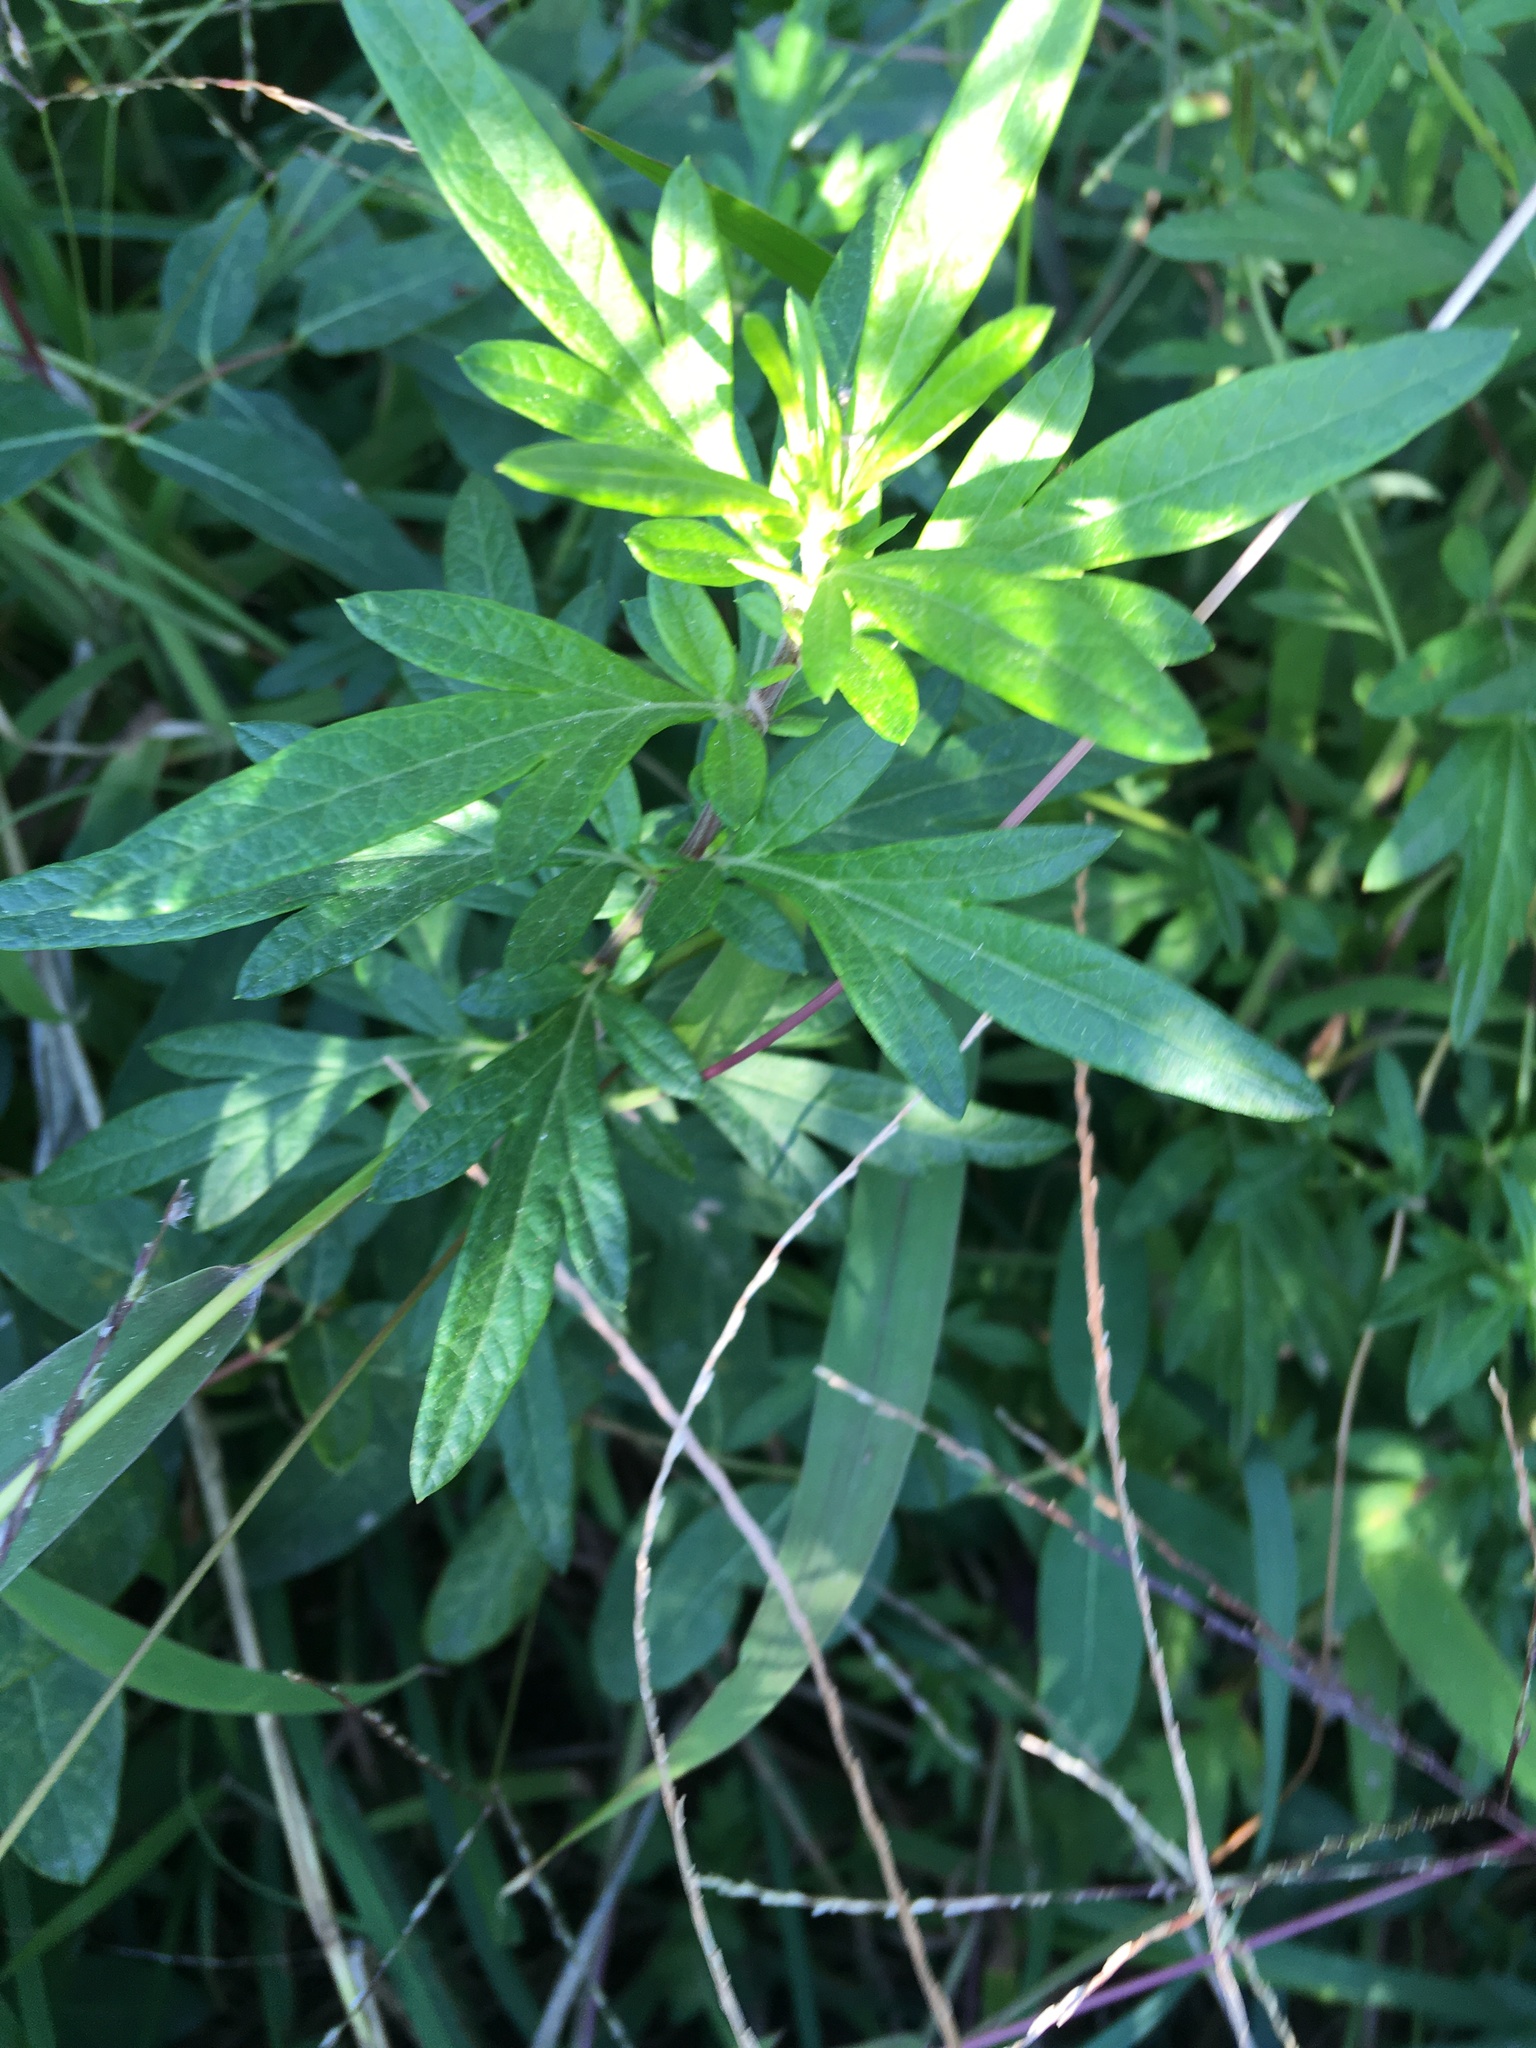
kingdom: Plantae
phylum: Tracheophyta
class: Magnoliopsida
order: Asterales
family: Asteraceae
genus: Artemisia
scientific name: Artemisia vulgaris
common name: Mugwort
